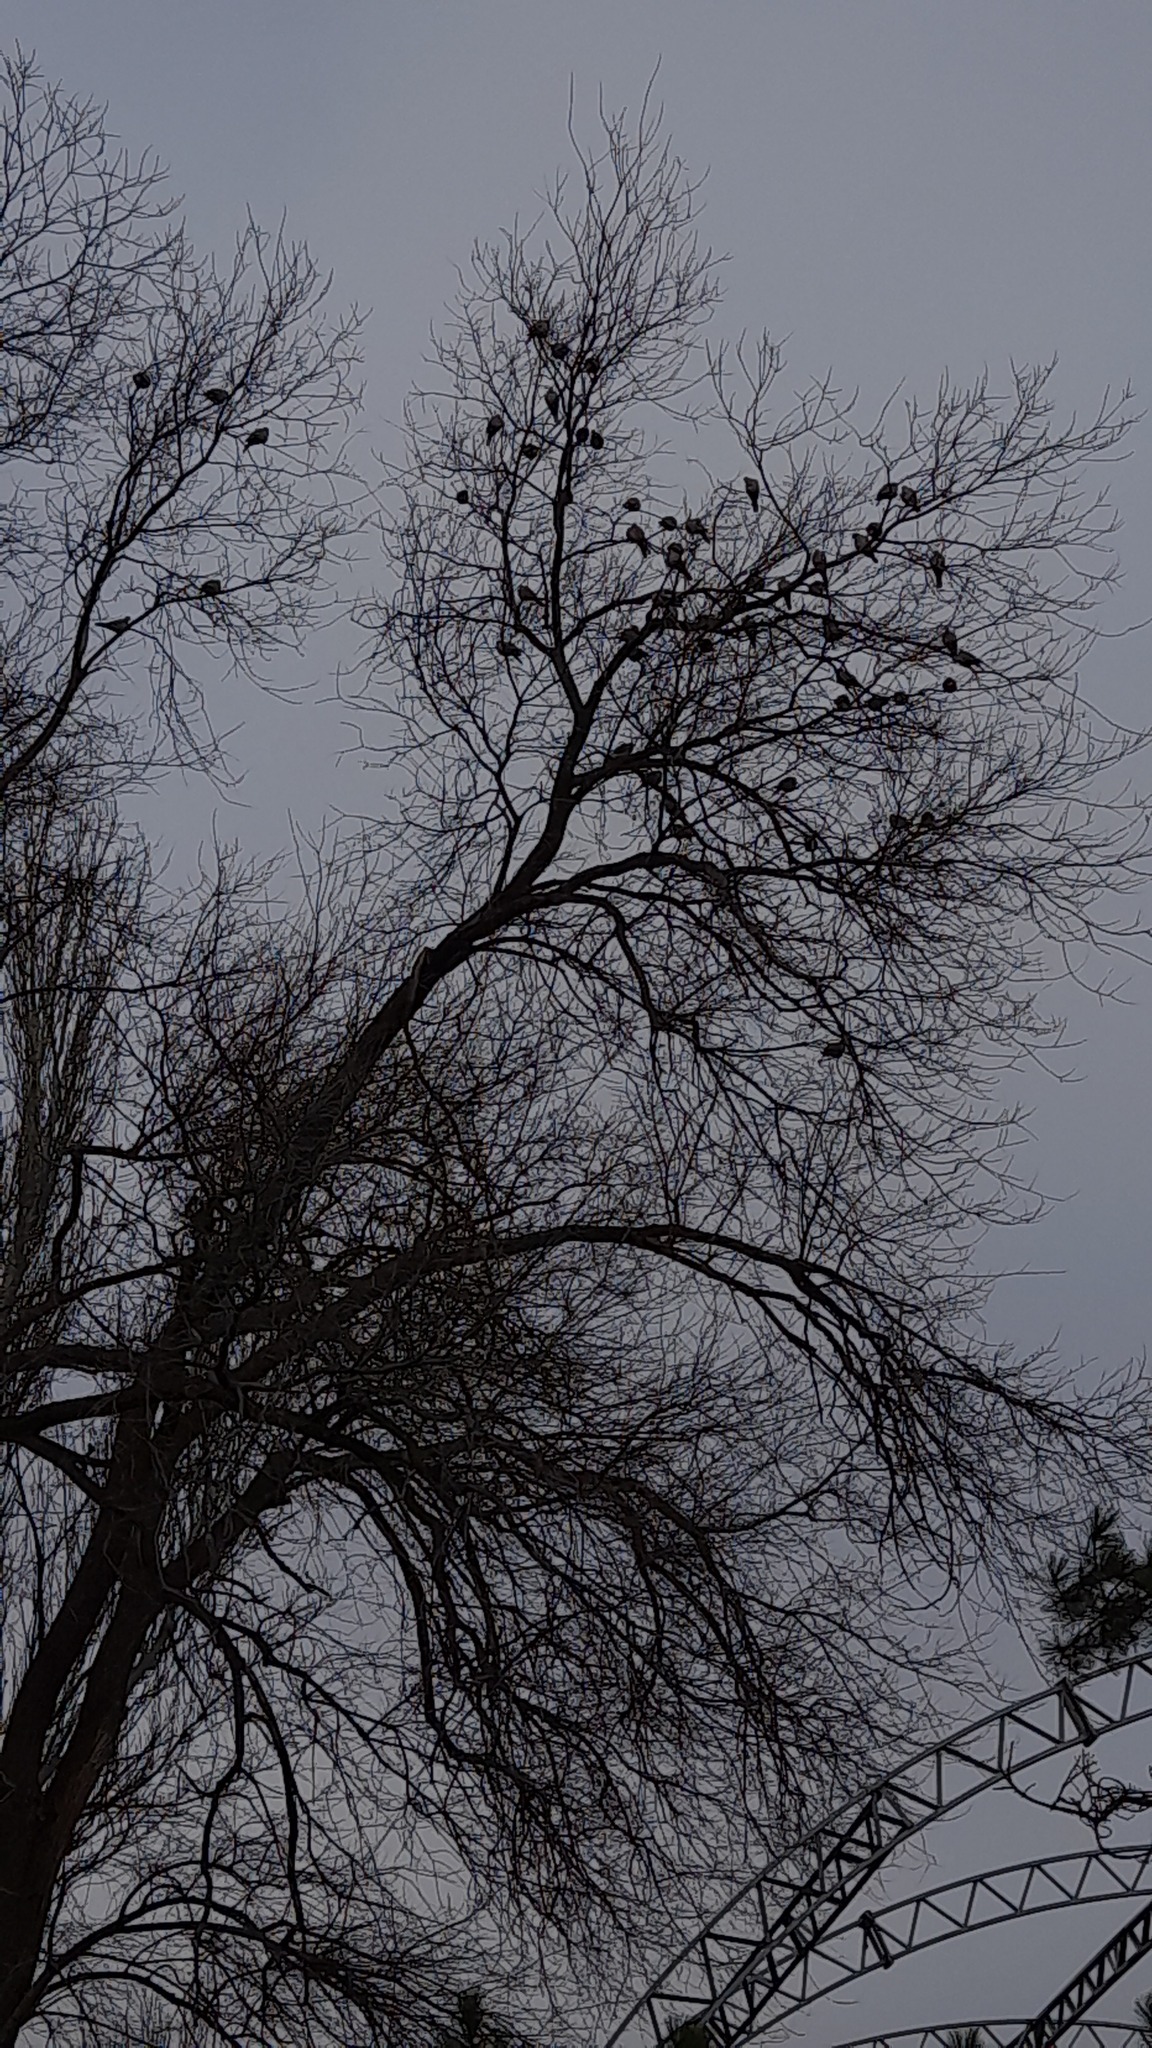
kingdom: Animalia
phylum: Chordata
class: Aves
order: Columbiformes
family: Columbidae
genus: Streptopelia
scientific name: Streptopelia decaocto
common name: Eurasian collared dove
